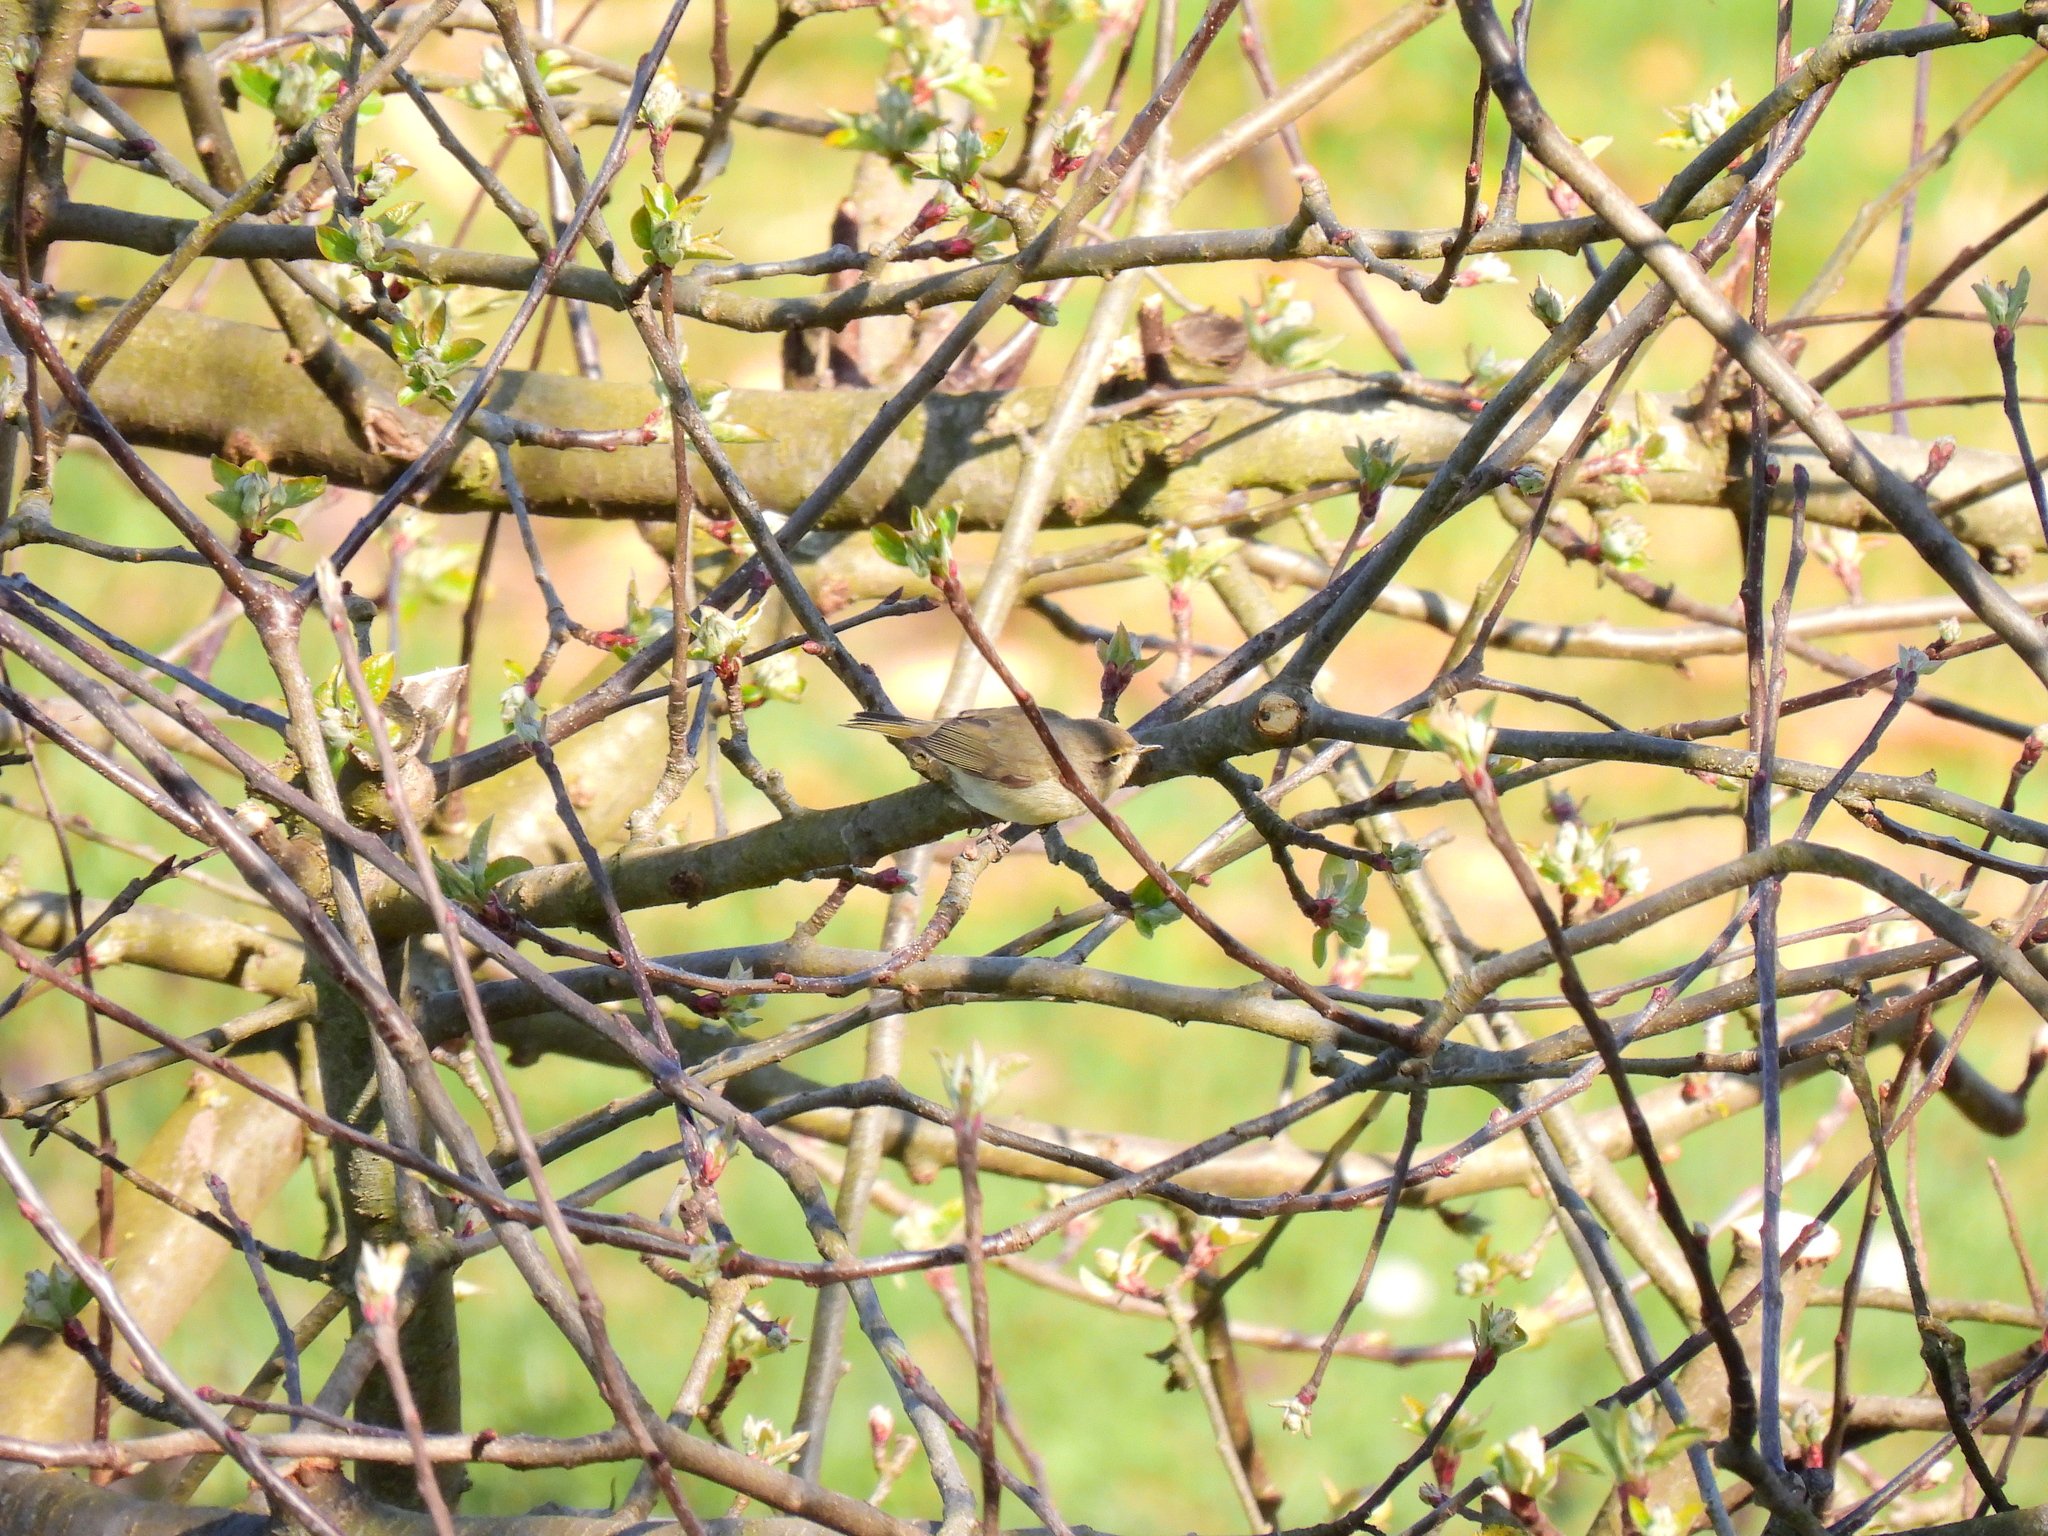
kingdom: Animalia
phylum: Chordata
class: Aves
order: Passeriformes
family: Phylloscopidae
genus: Phylloscopus
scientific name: Phylloscopus collybita
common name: Common chiffchaff
